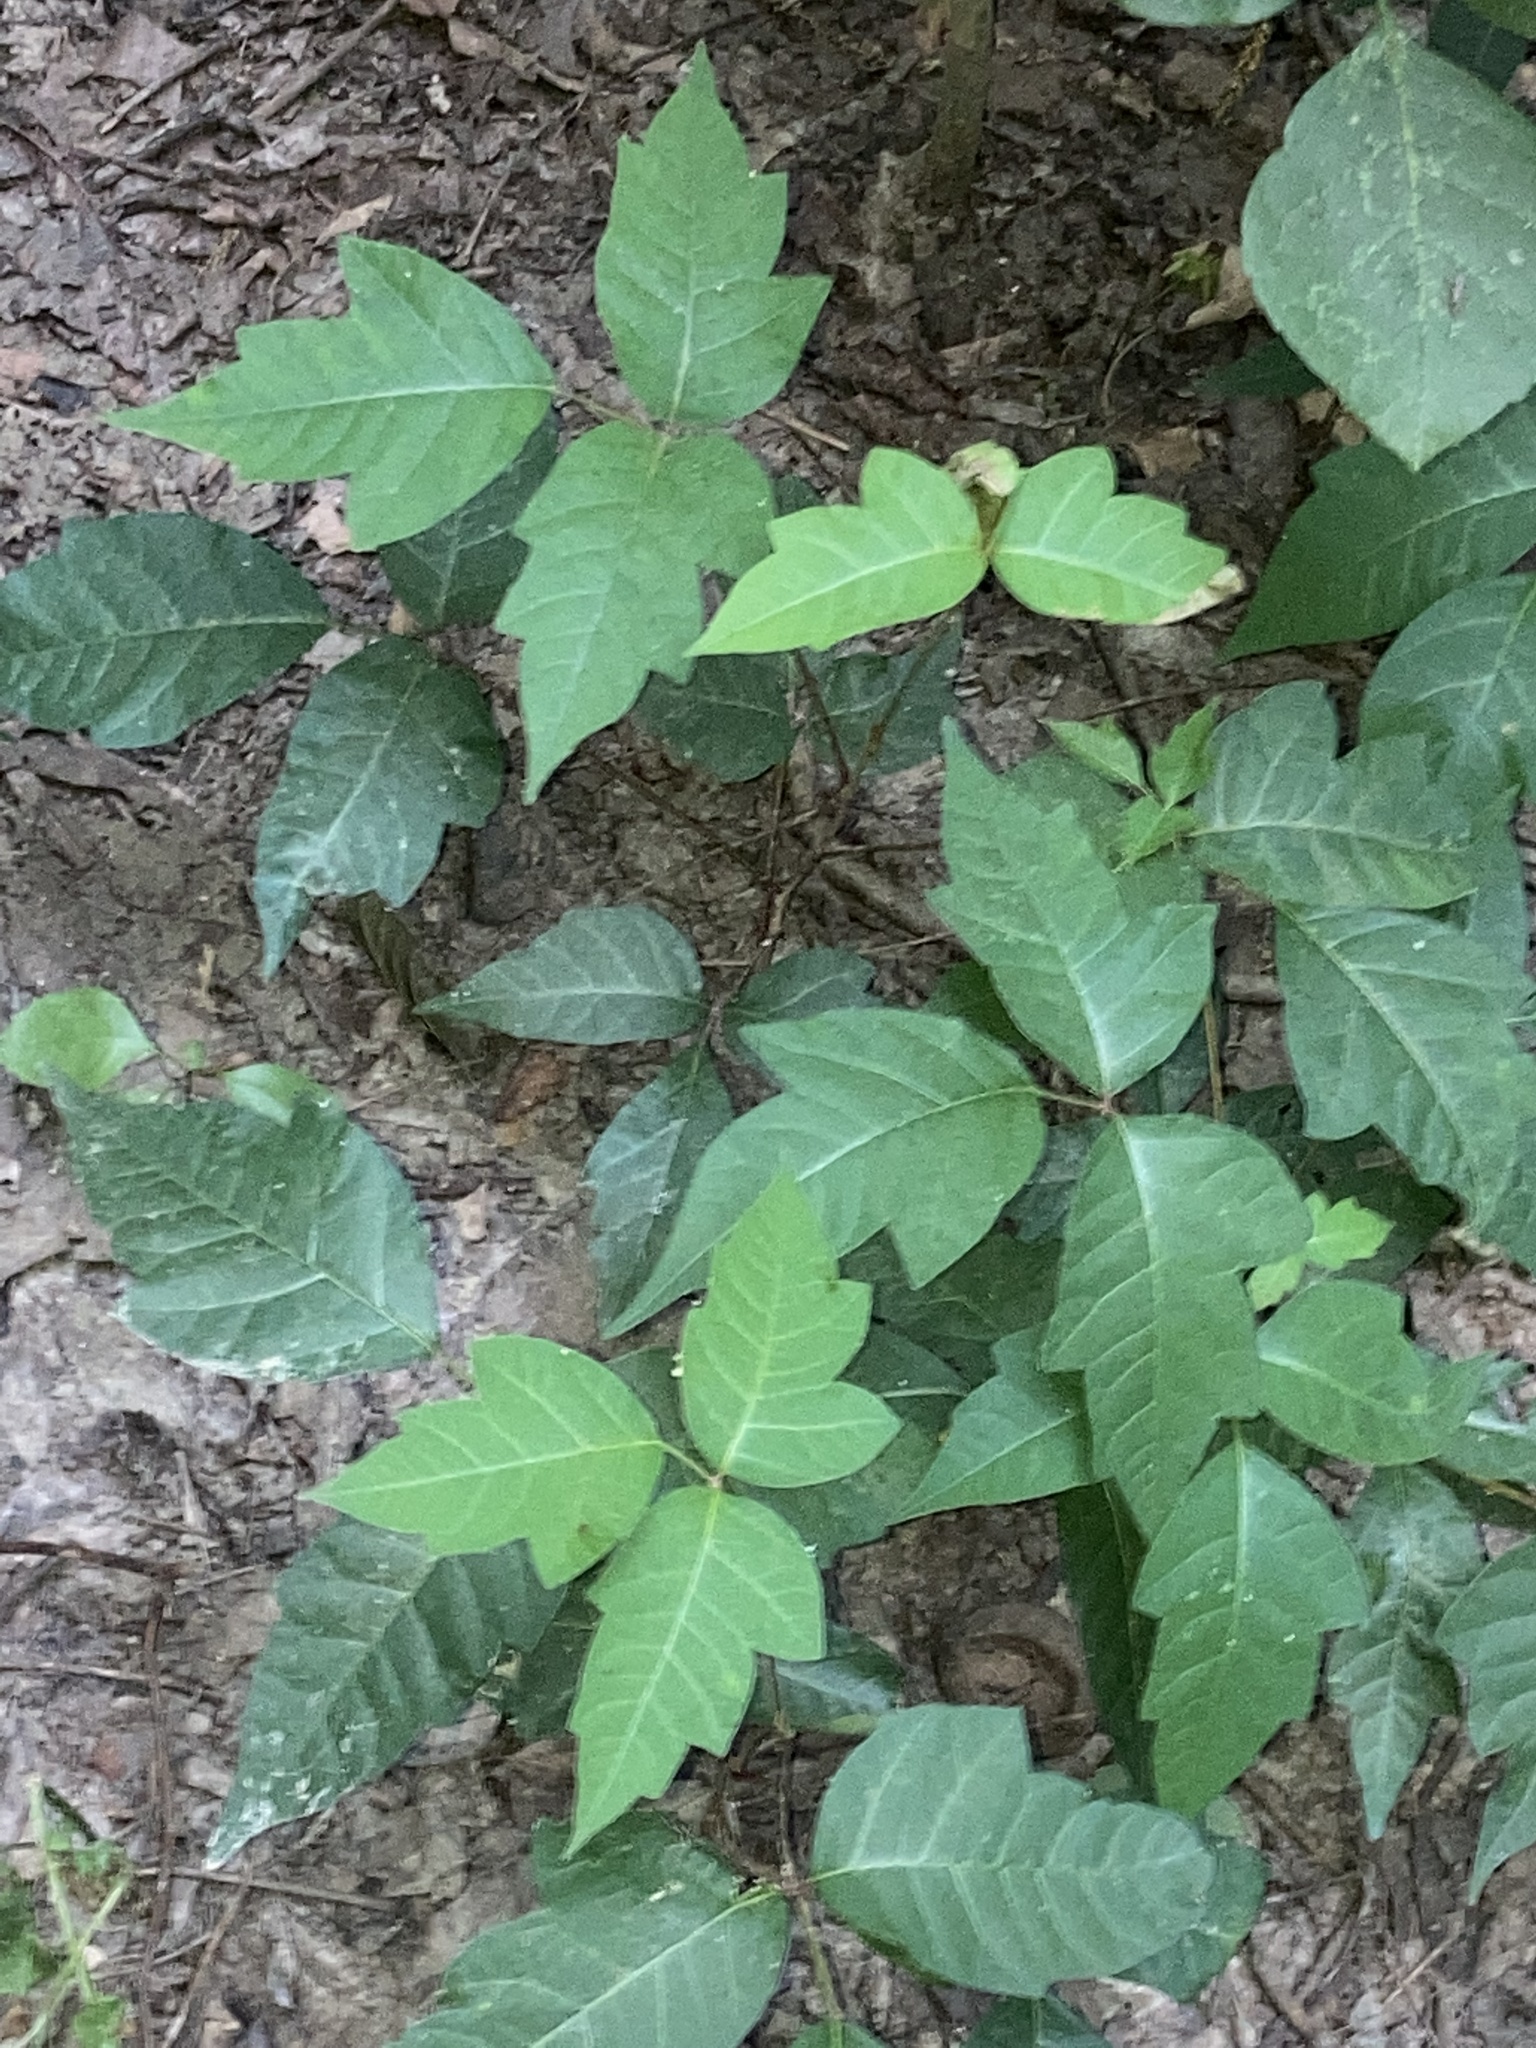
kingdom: Plantae
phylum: Tracheophyta
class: Magnoliopsida
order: Sapindales
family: Anacardiaceae
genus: Toxicodendron
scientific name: Toxicodendron radicans
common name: Poison ivy
